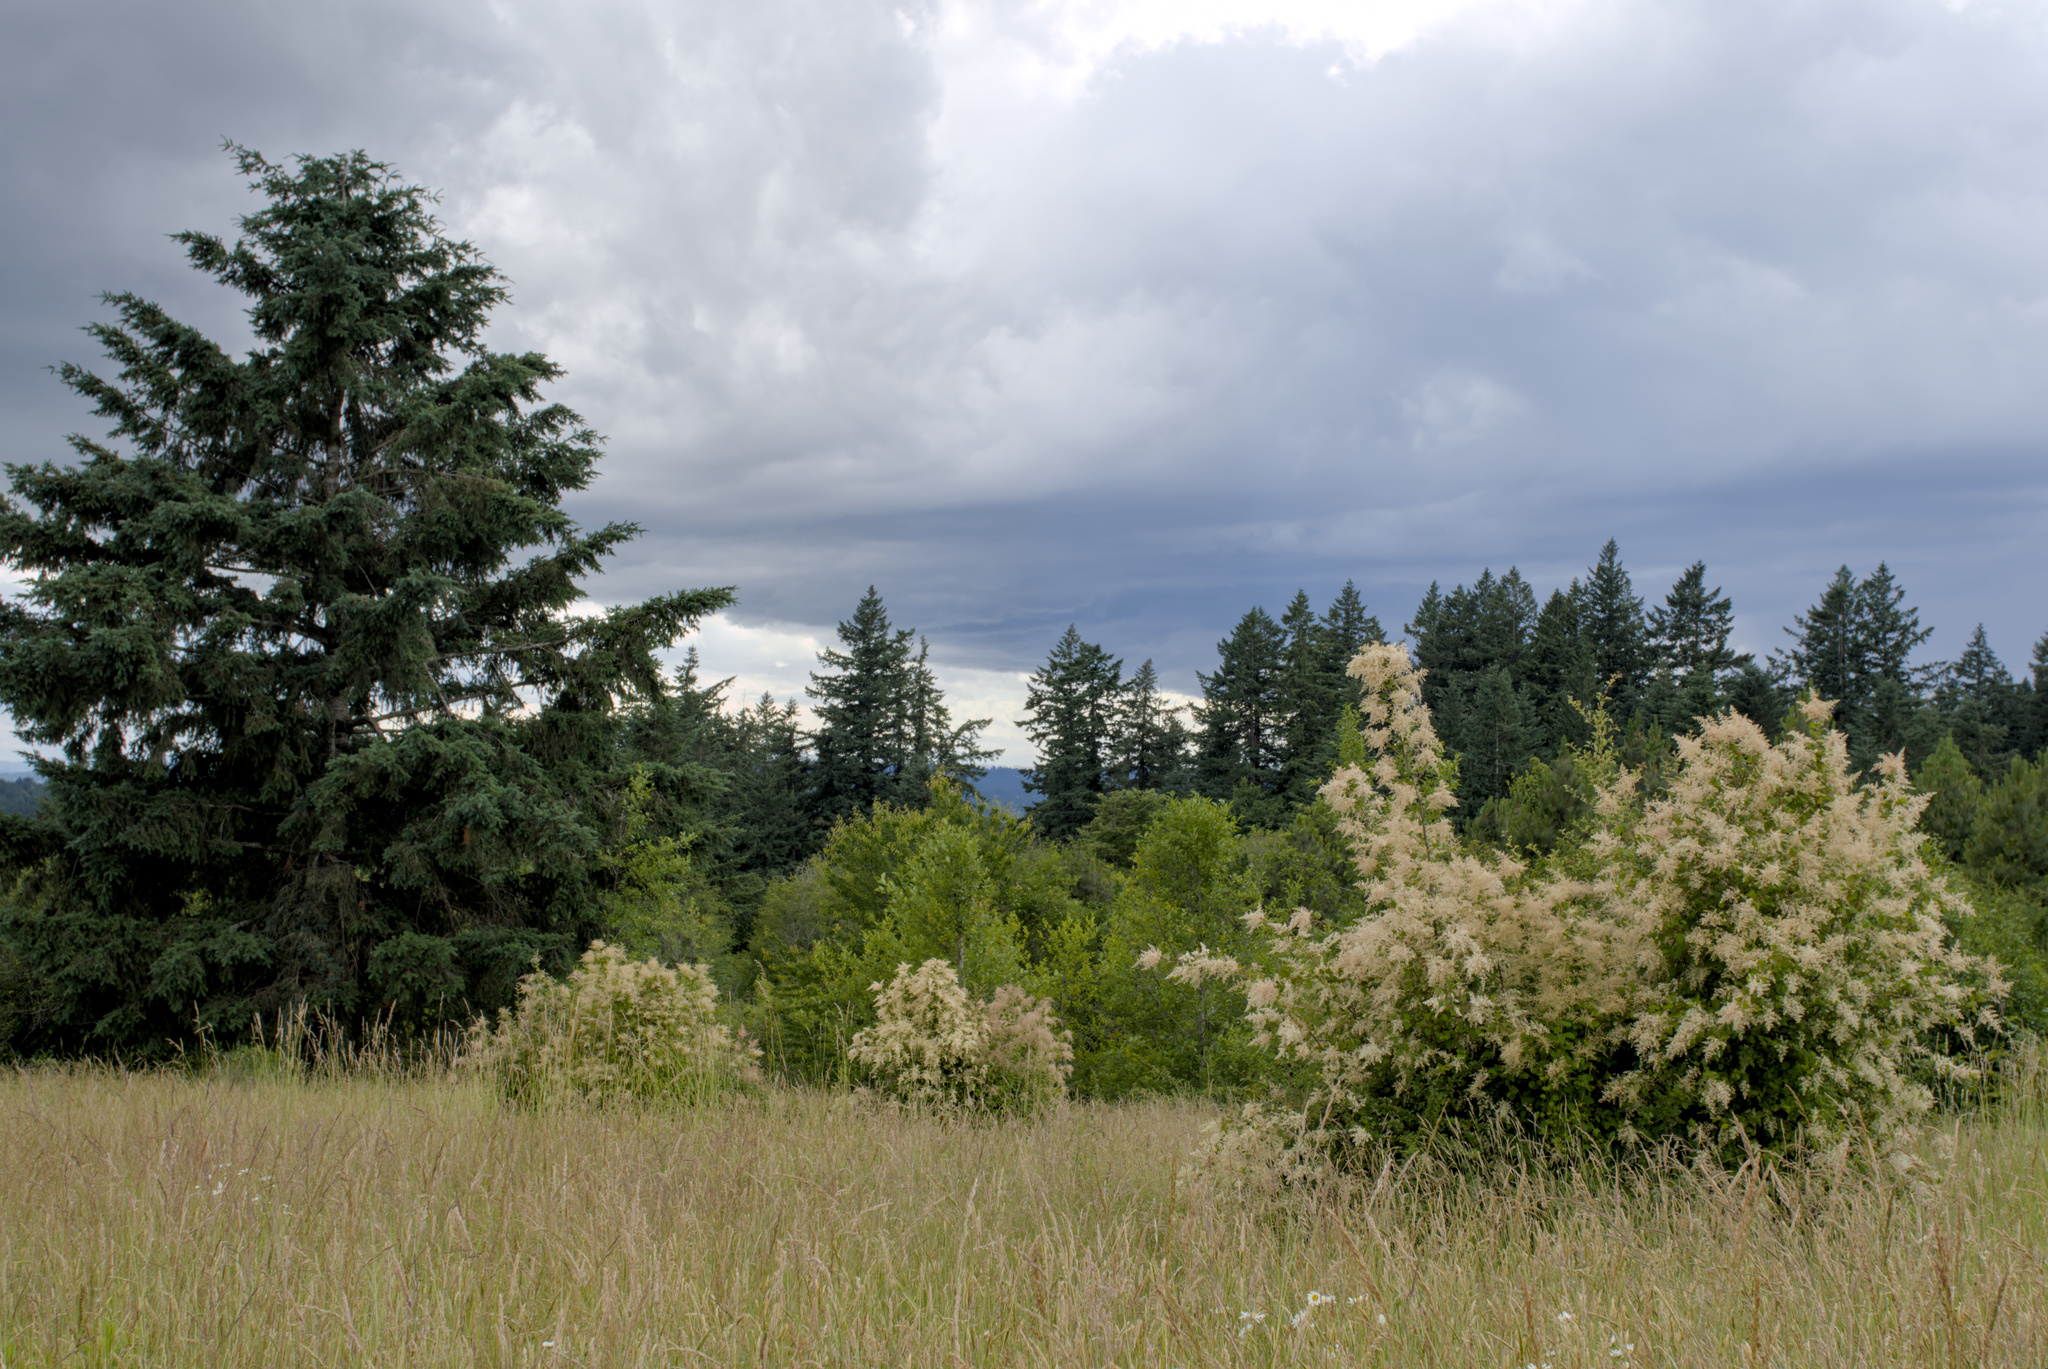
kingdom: Plantae
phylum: Tracheophyta
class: Magnoliopsida
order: Rosales
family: Rosaceae
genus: Holodiscus
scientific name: Holodiscus discolor
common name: Oceanspray
